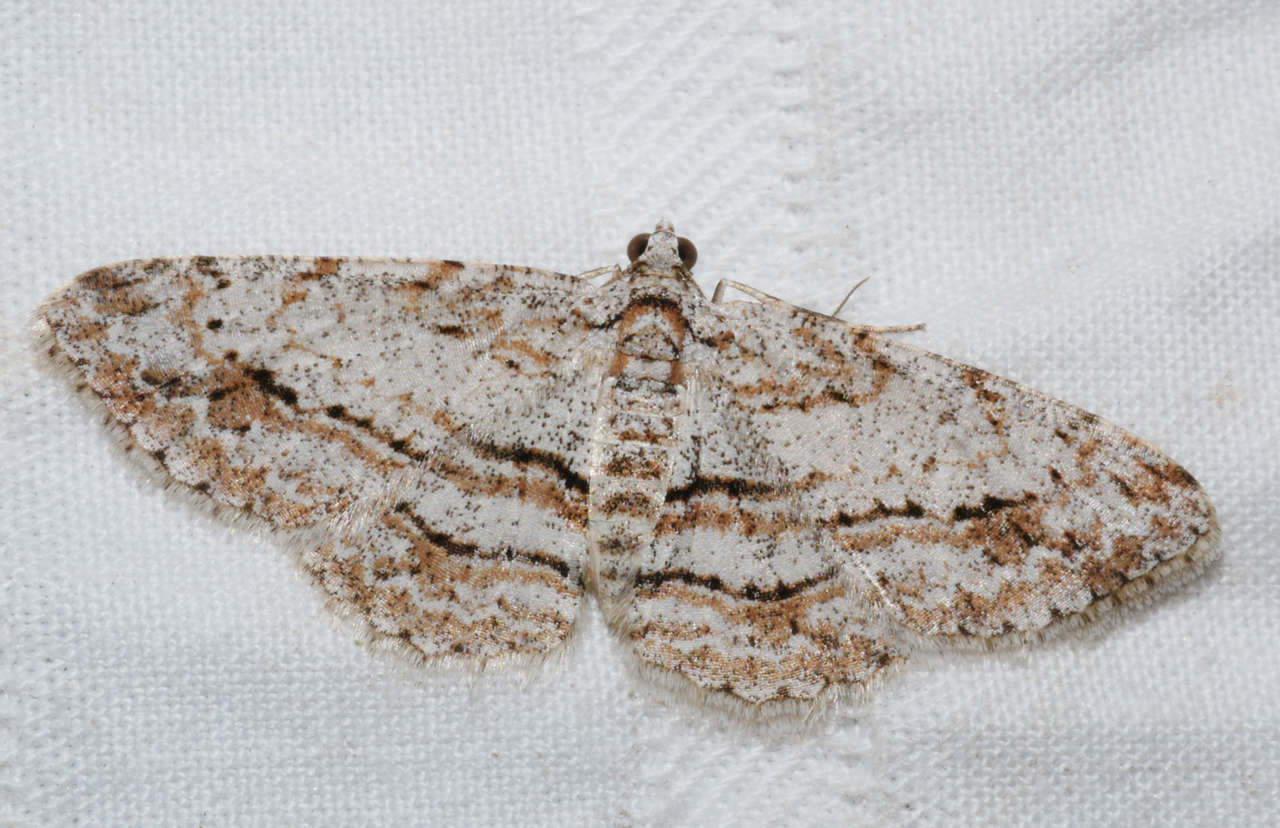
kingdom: Animalia
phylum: Arthropoda
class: Insecta
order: Lepidoptera
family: Geometridae
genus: Didymoctenia
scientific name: Didymoctenia exsuperata
